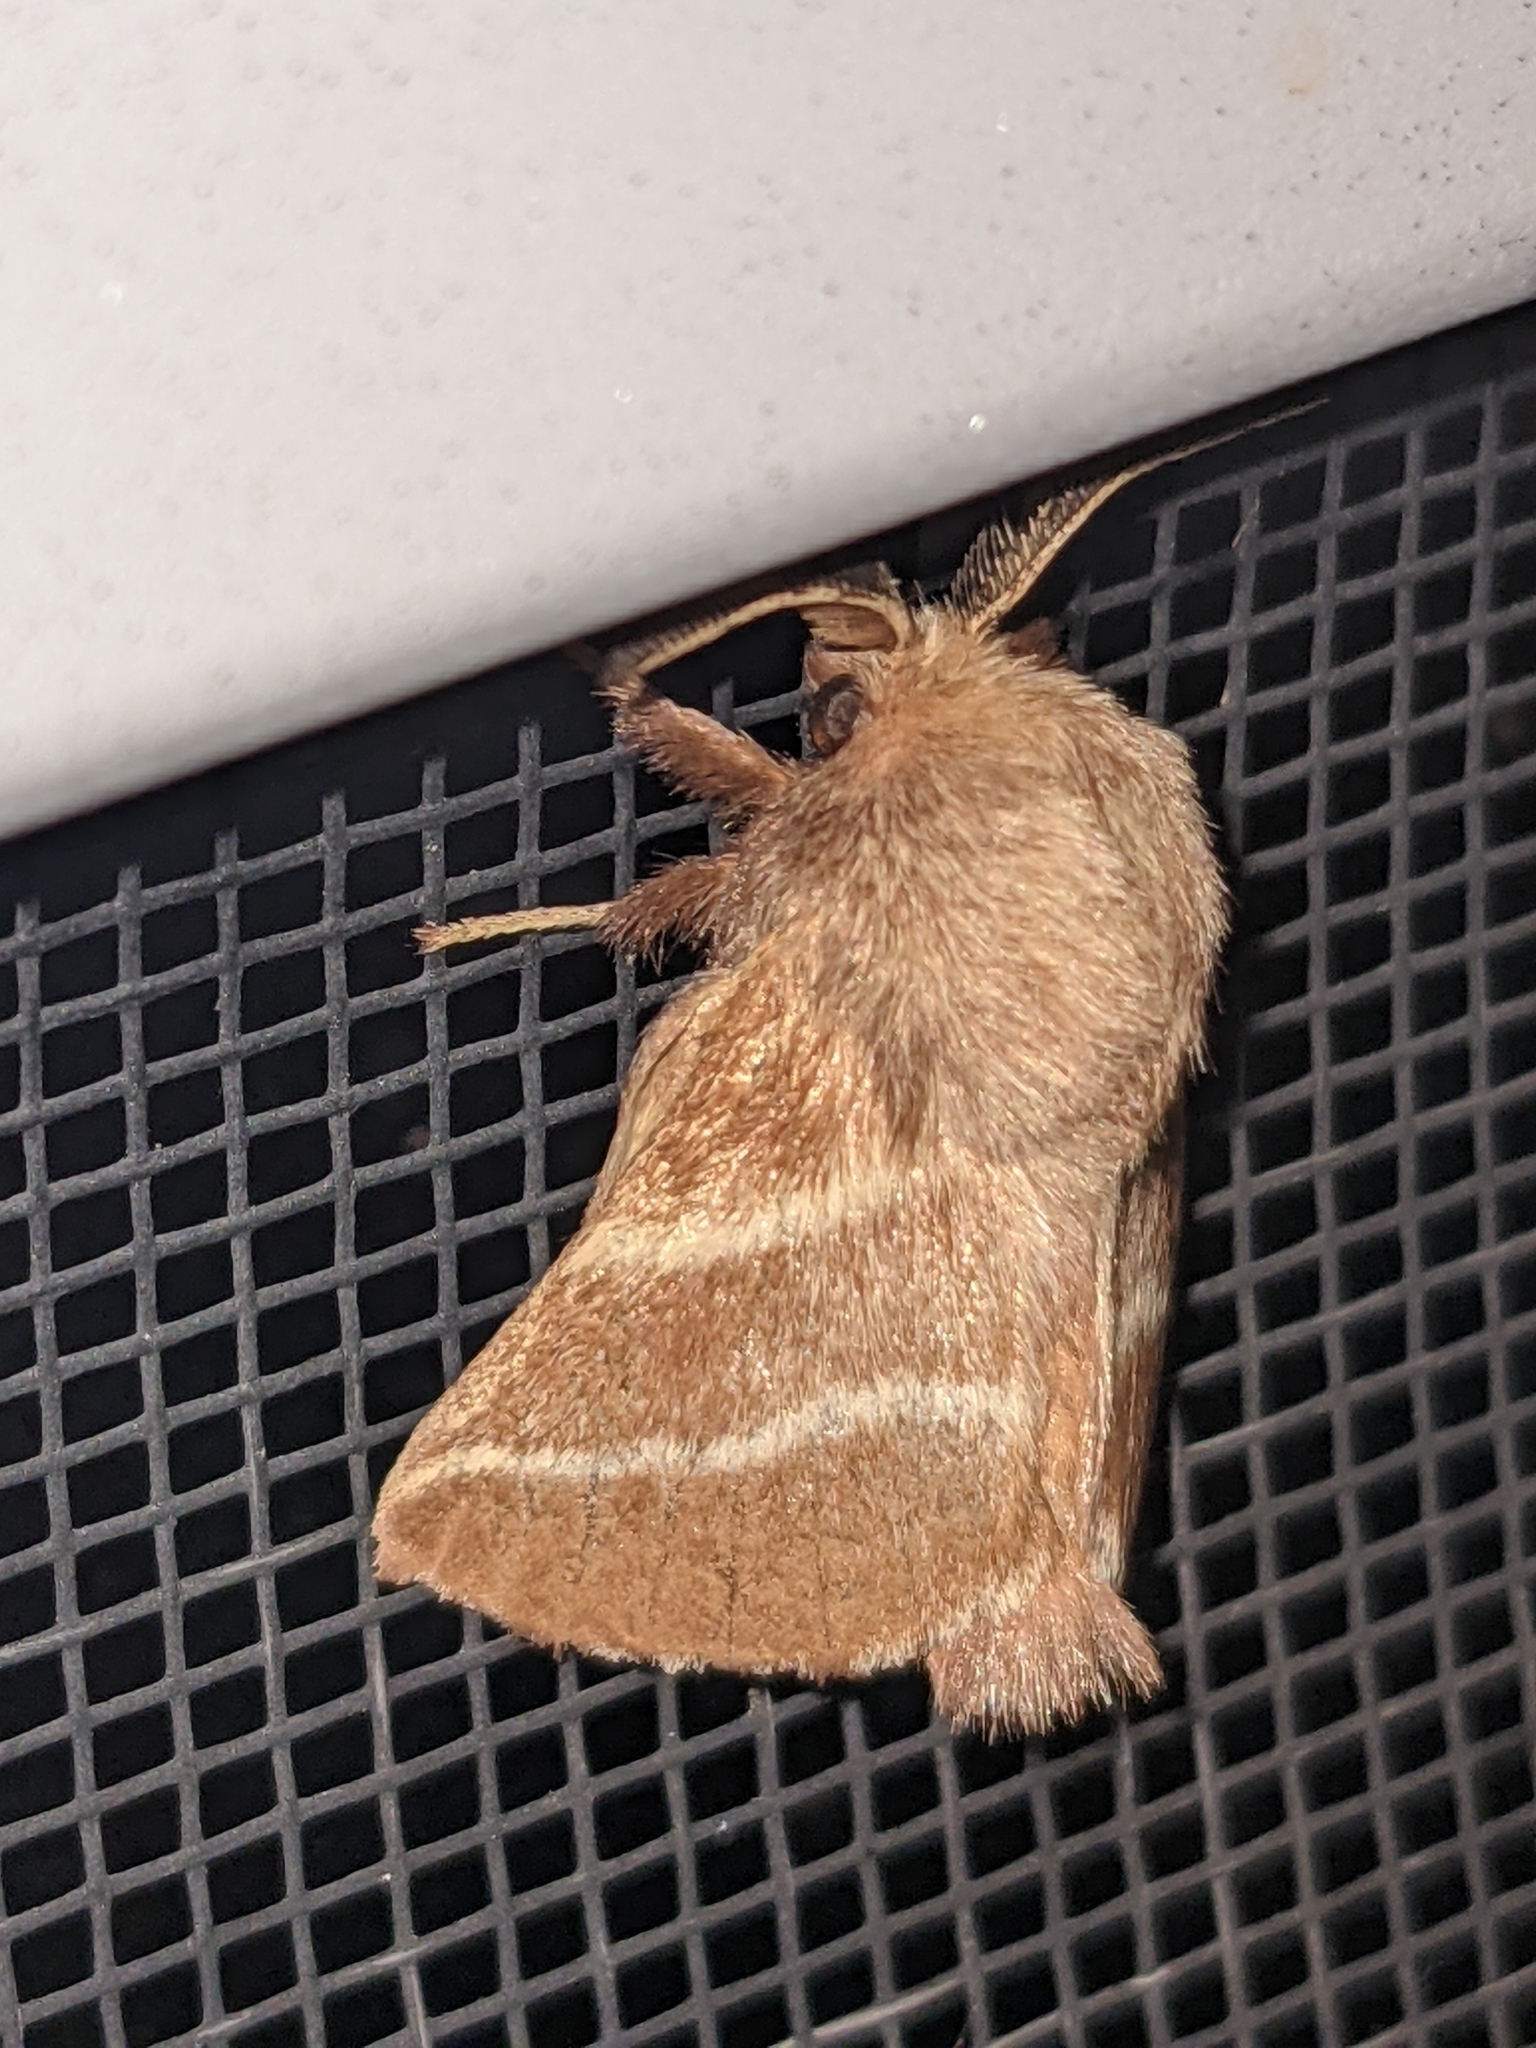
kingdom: Animalia
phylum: Arthropoda
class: Insecta
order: Lepidoptera
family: Lasiocampidae
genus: Malacosoma
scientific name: Malacosoma americana
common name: Eastern tent caterpillar moth
